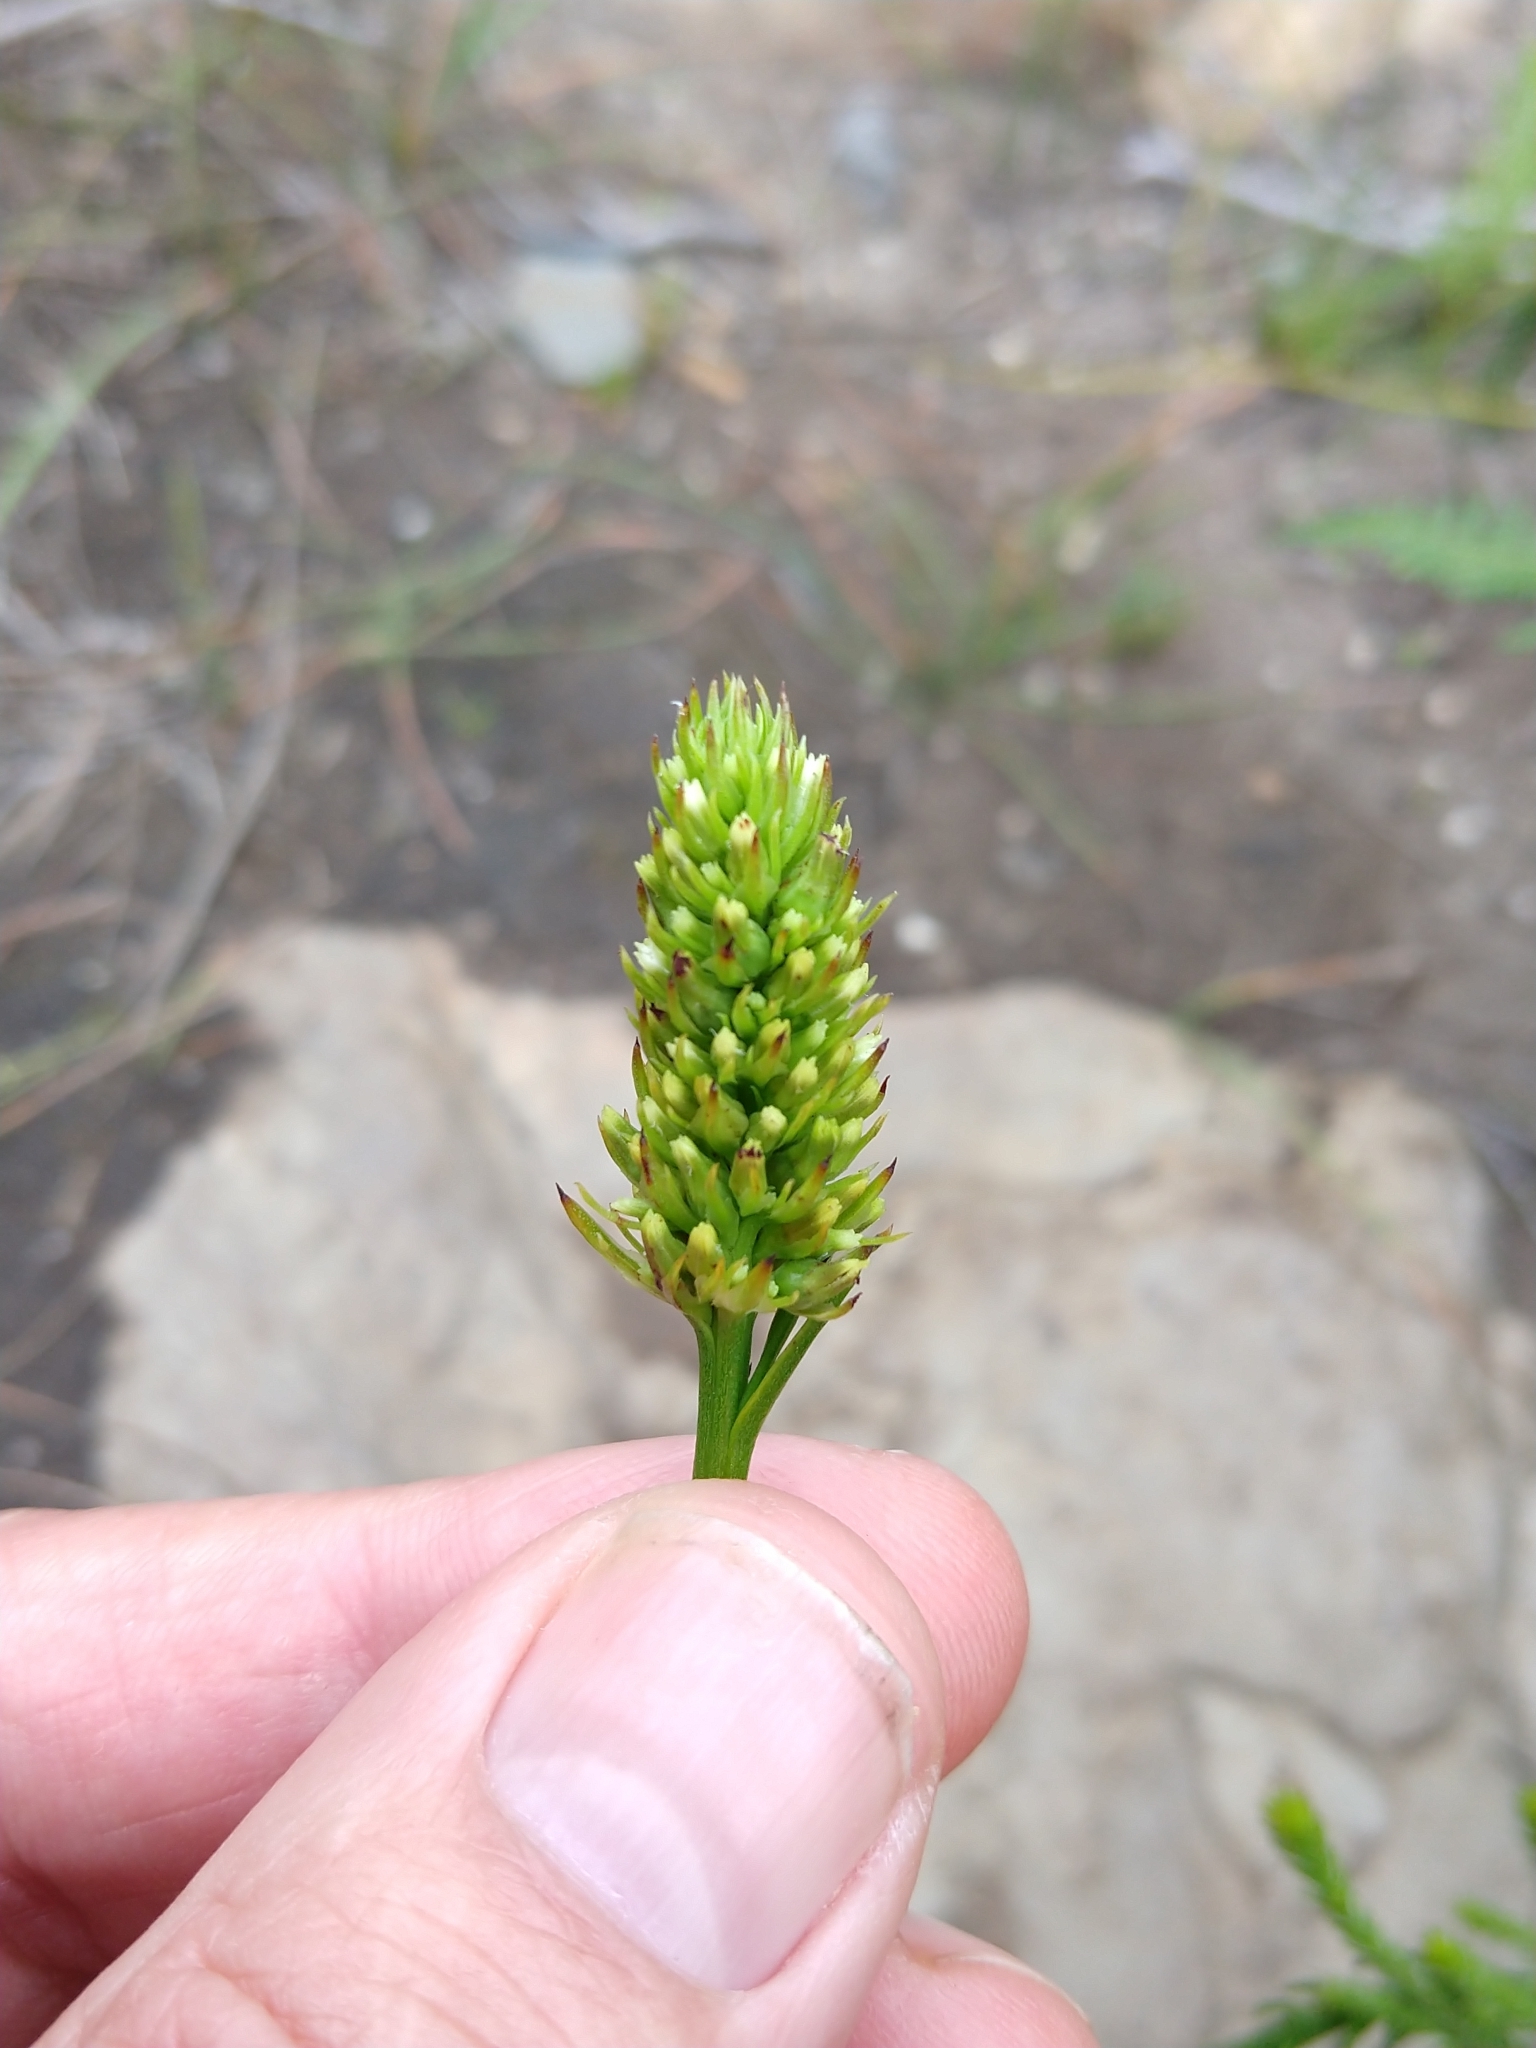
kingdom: Plantae
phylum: Tracheophyta
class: Magnoliopsida
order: Santalales
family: Thesiaceae
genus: Thesium
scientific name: Thesium aggregatum
